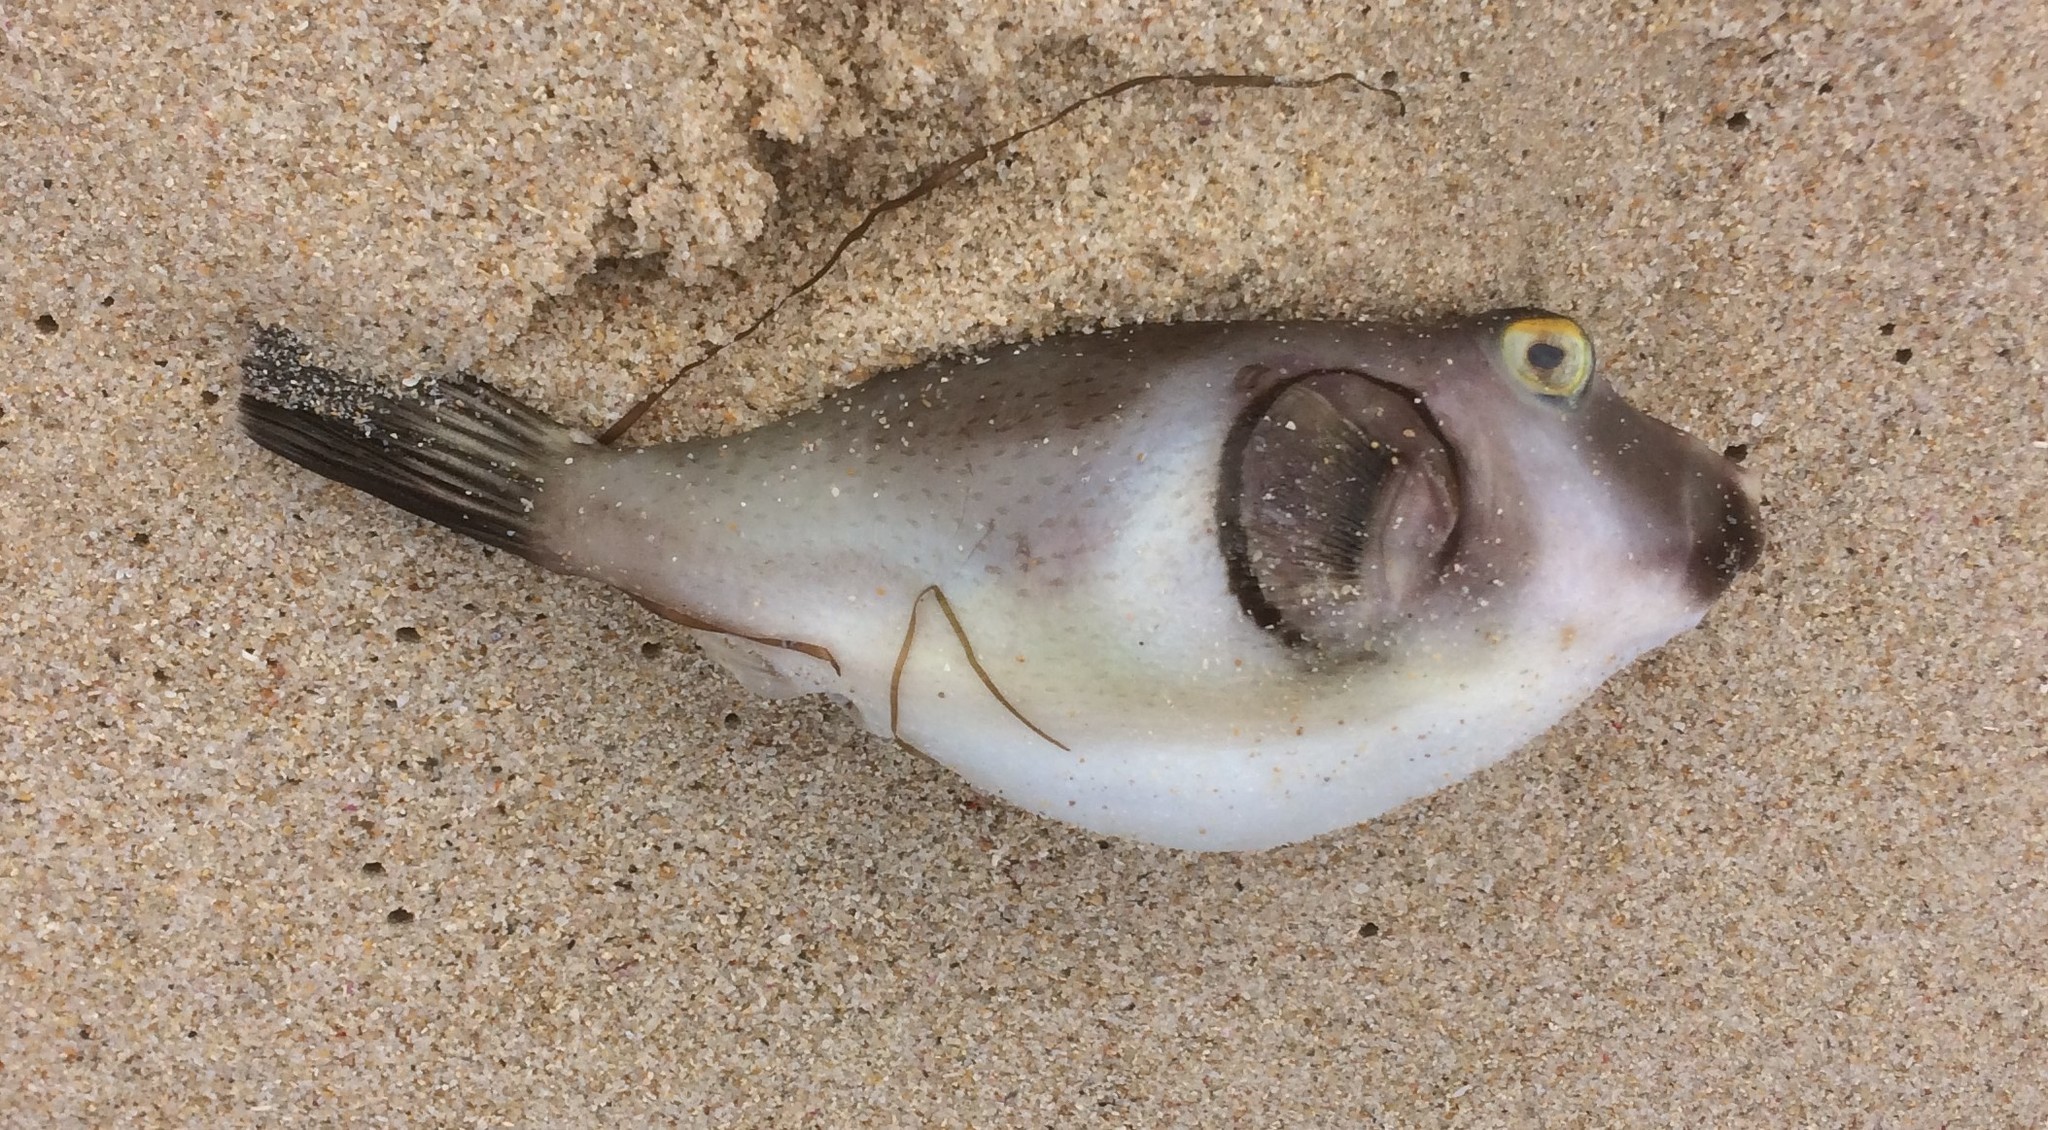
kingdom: Animalia
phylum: Chordata
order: Tetraodontiformes
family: Tetraodontidae
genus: Omegophora
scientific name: Omegophora armilla
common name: Ringed pufferfish
